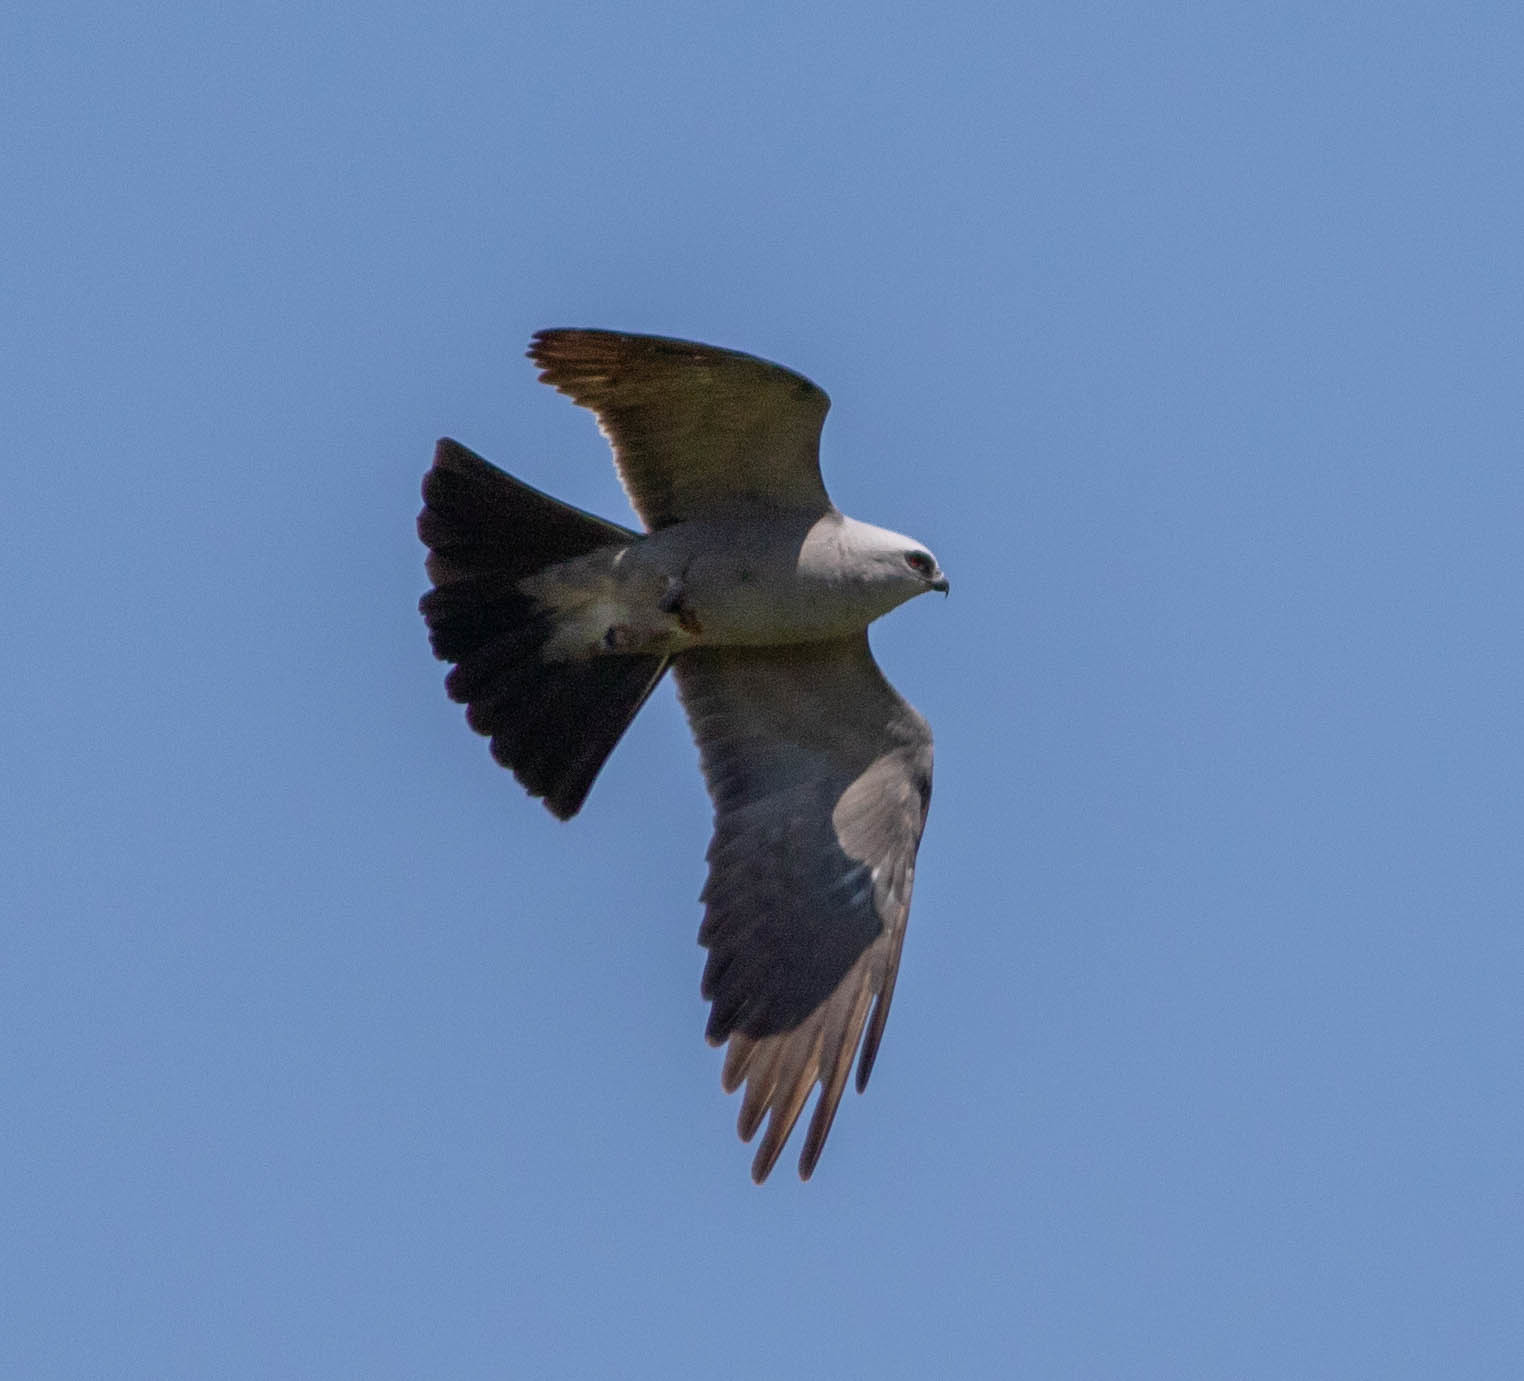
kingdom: Animalia
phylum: Chordata
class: Aves
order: Accipitriformes
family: Accipitridae
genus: Ictinia
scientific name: Ictinia mississippiensis
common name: Mississippi kite
